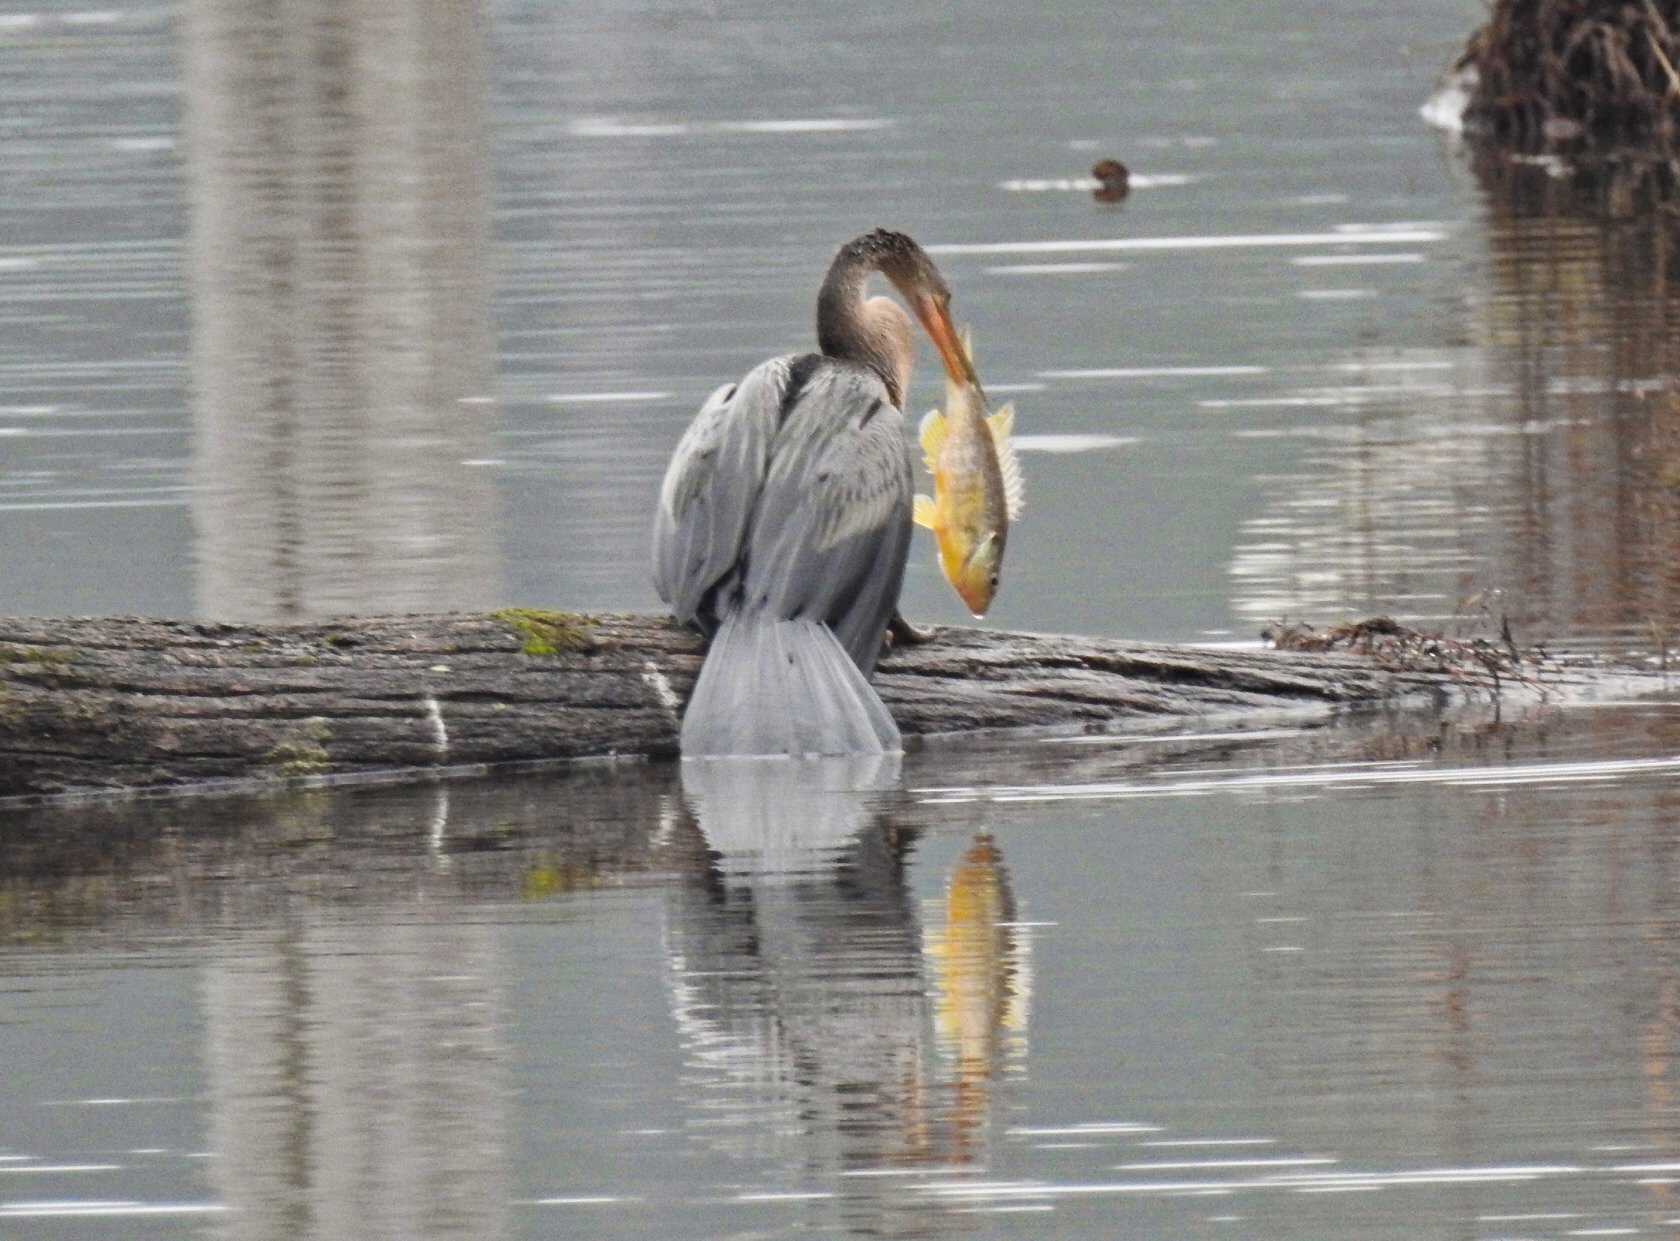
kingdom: Animalia
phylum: Chordata
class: Aves
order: Suliformes
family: Anhingidae
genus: Anhinga
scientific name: Anhinga anhinga
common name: Anhinga
